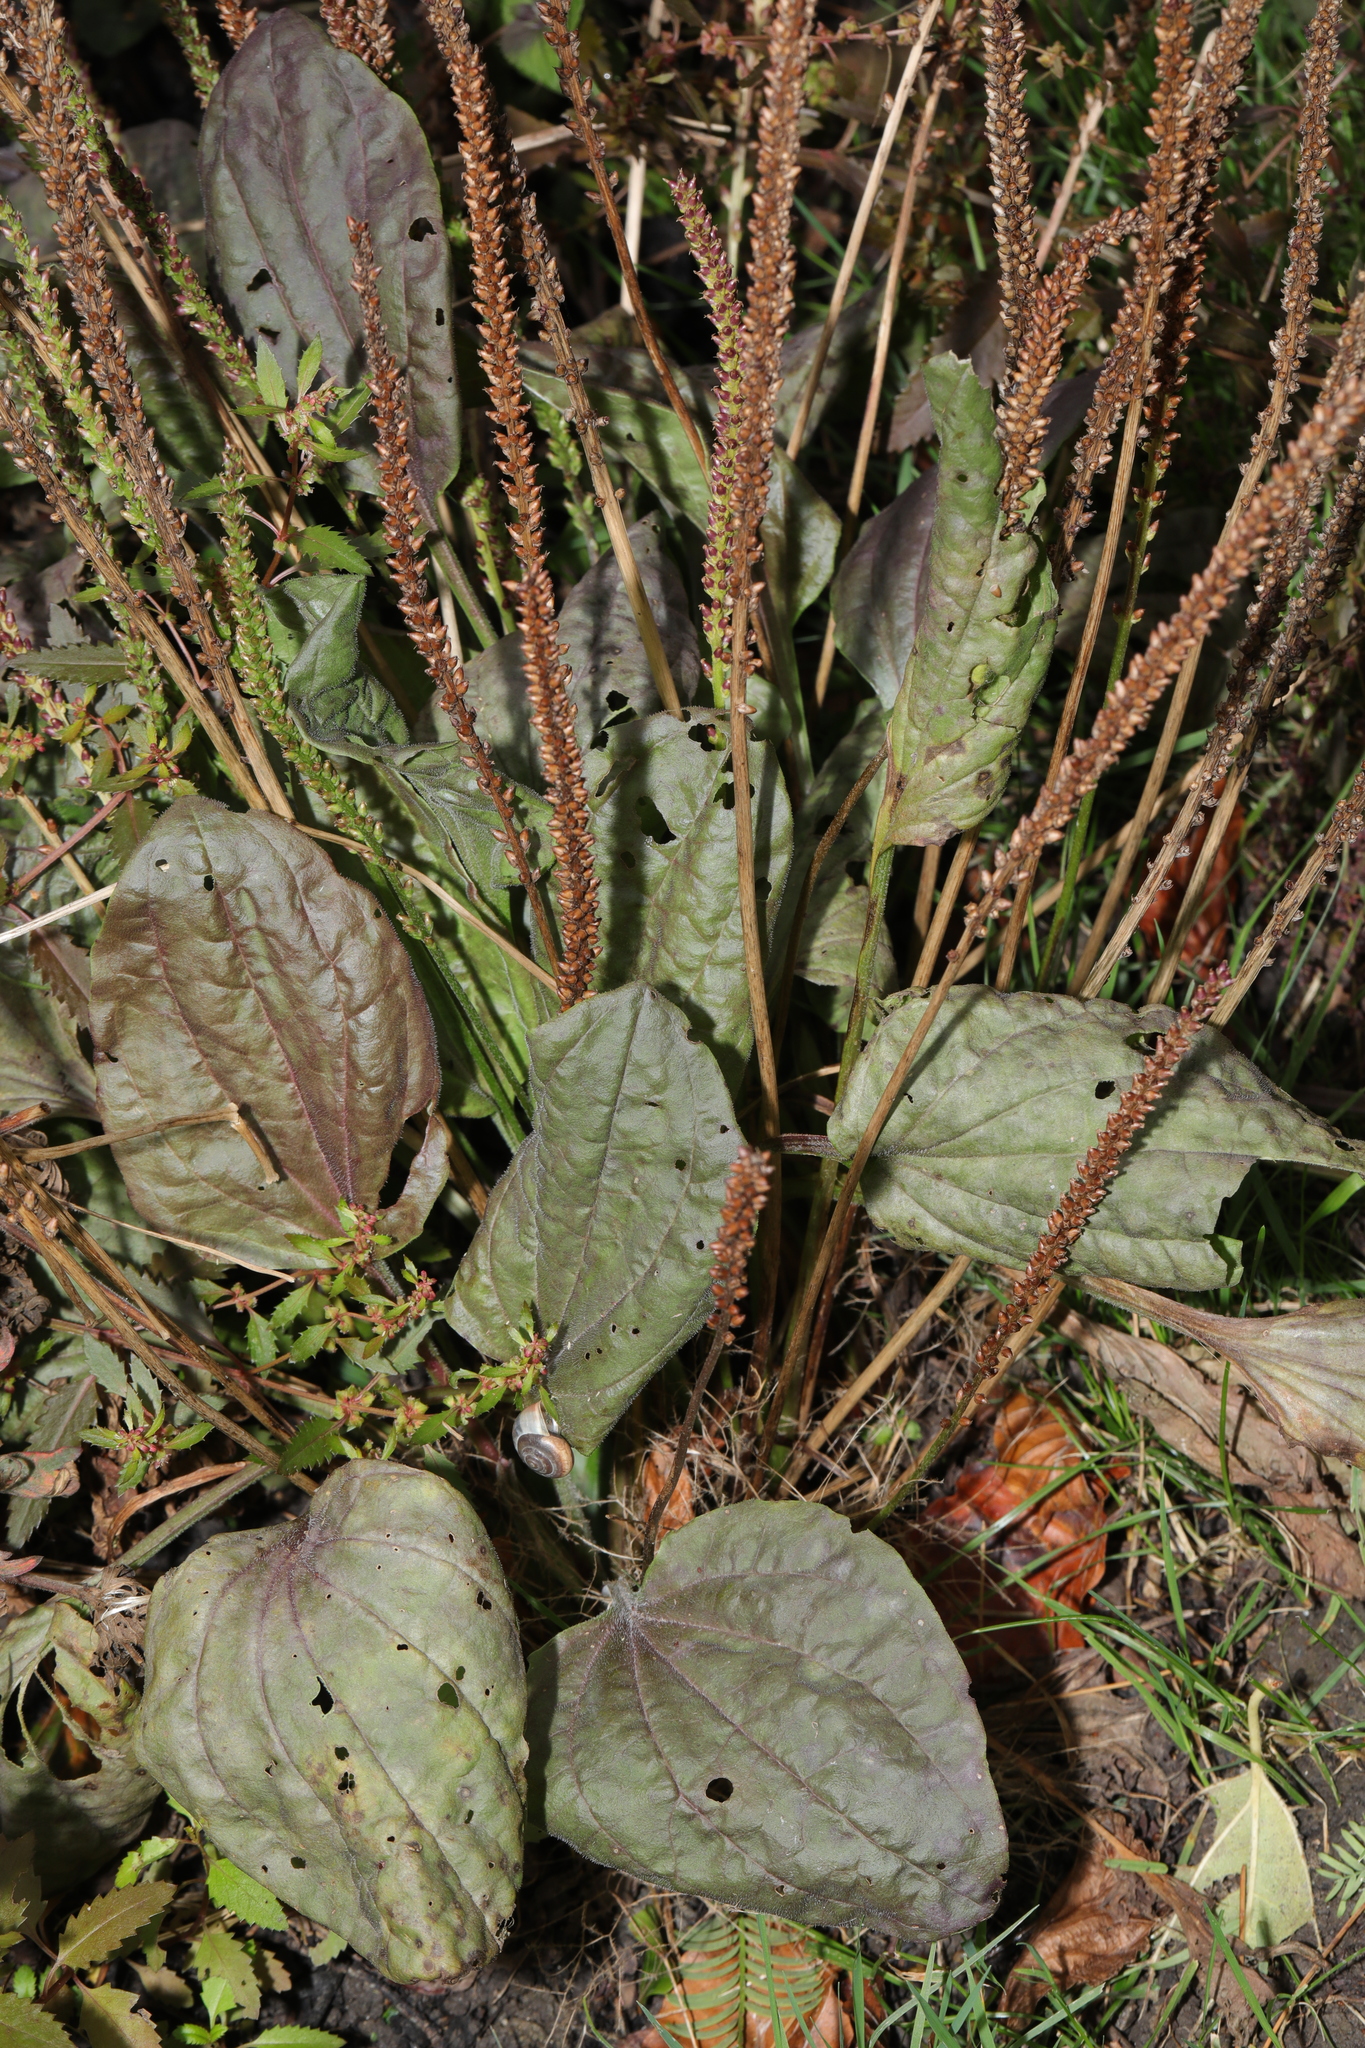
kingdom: Plantae
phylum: Tracheophyta
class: Magnoliopsida
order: Lamiales
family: Plantaginaceae
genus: Plantago
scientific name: Plantago major
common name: Common plantain
